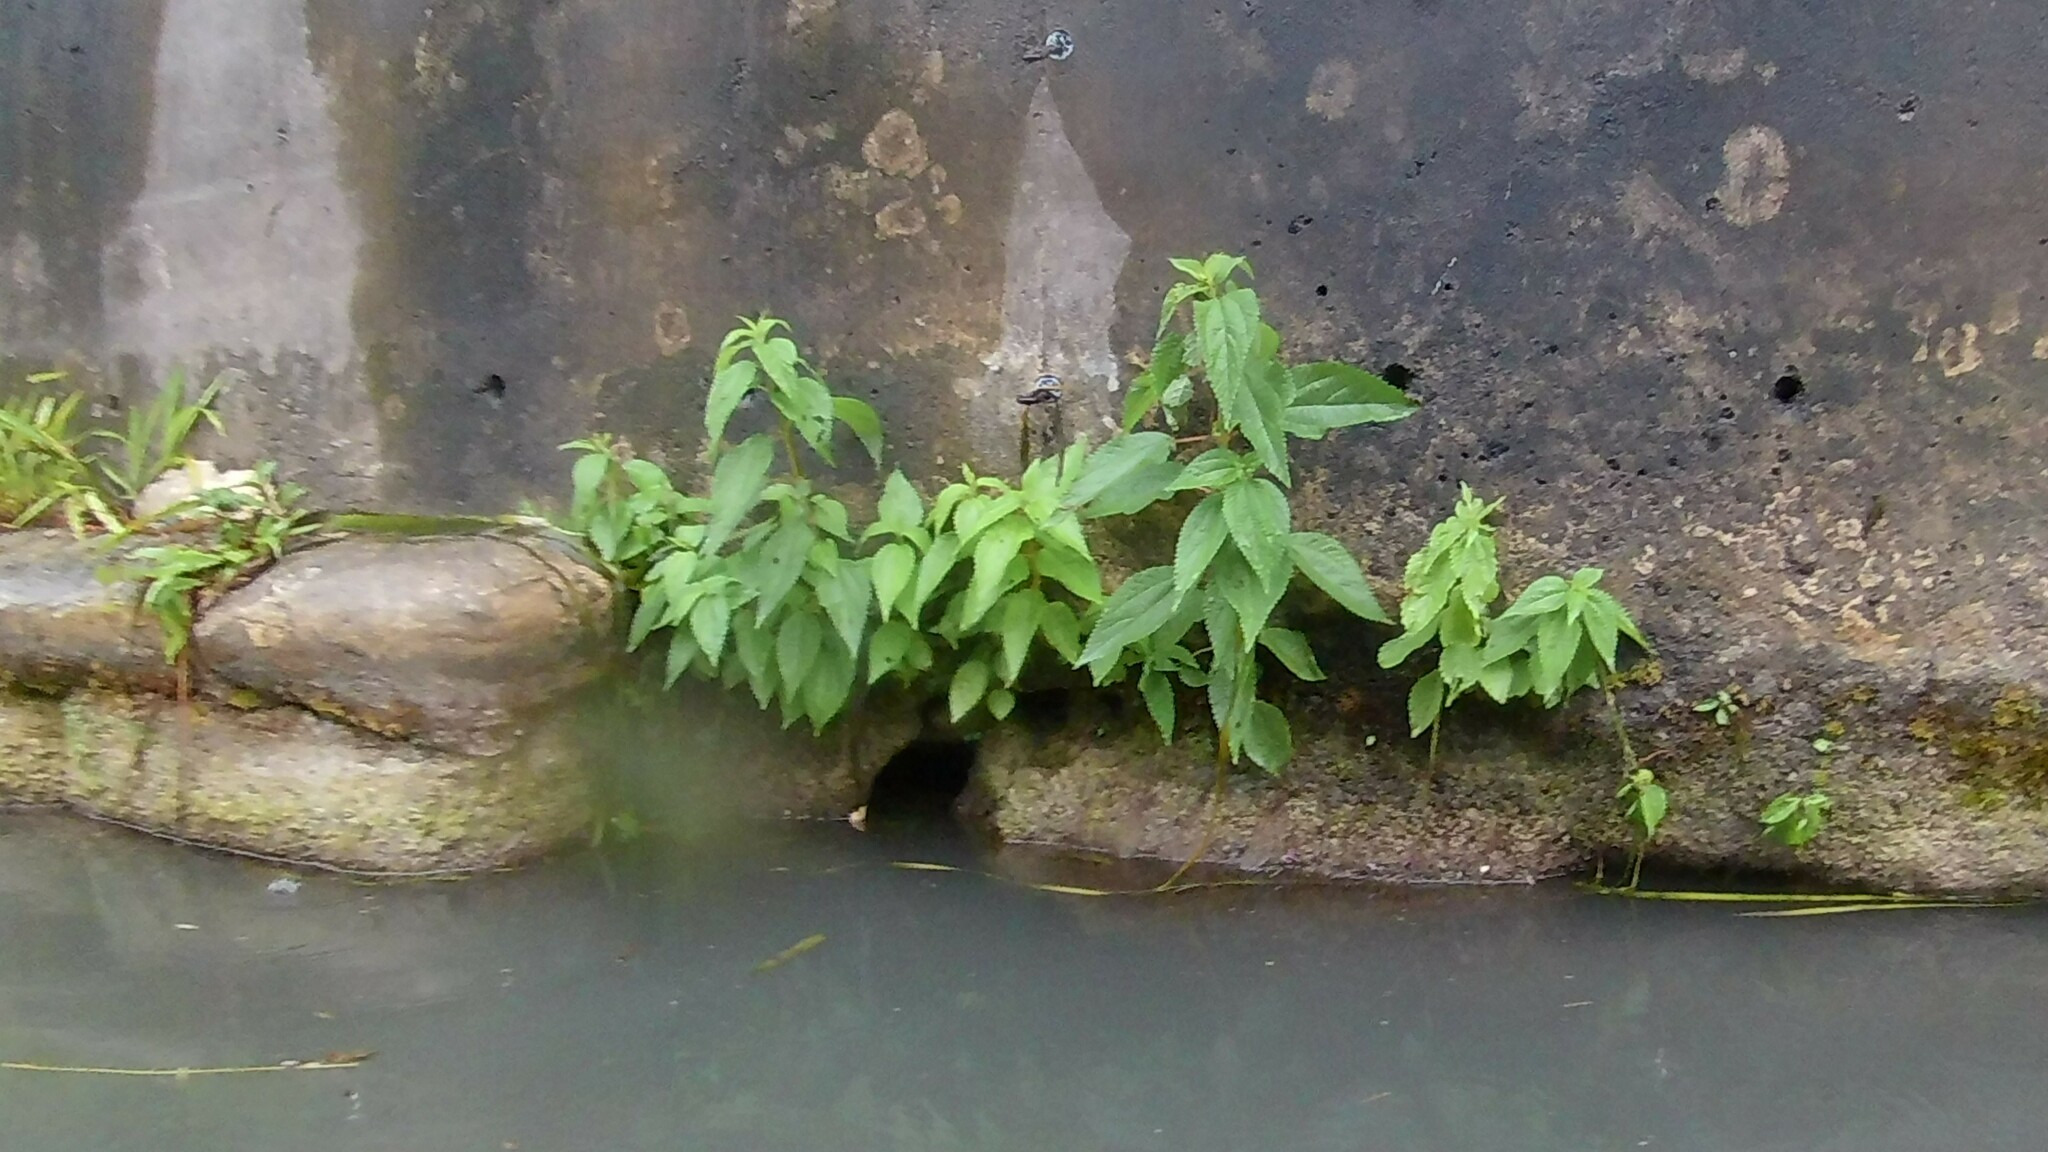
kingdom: Plantae
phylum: Tracheophyta
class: Magnoliopsida
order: Rosales
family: Urticaceae
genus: Boehmeria
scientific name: Boehmeria cylindrica
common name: Bog-hemp
